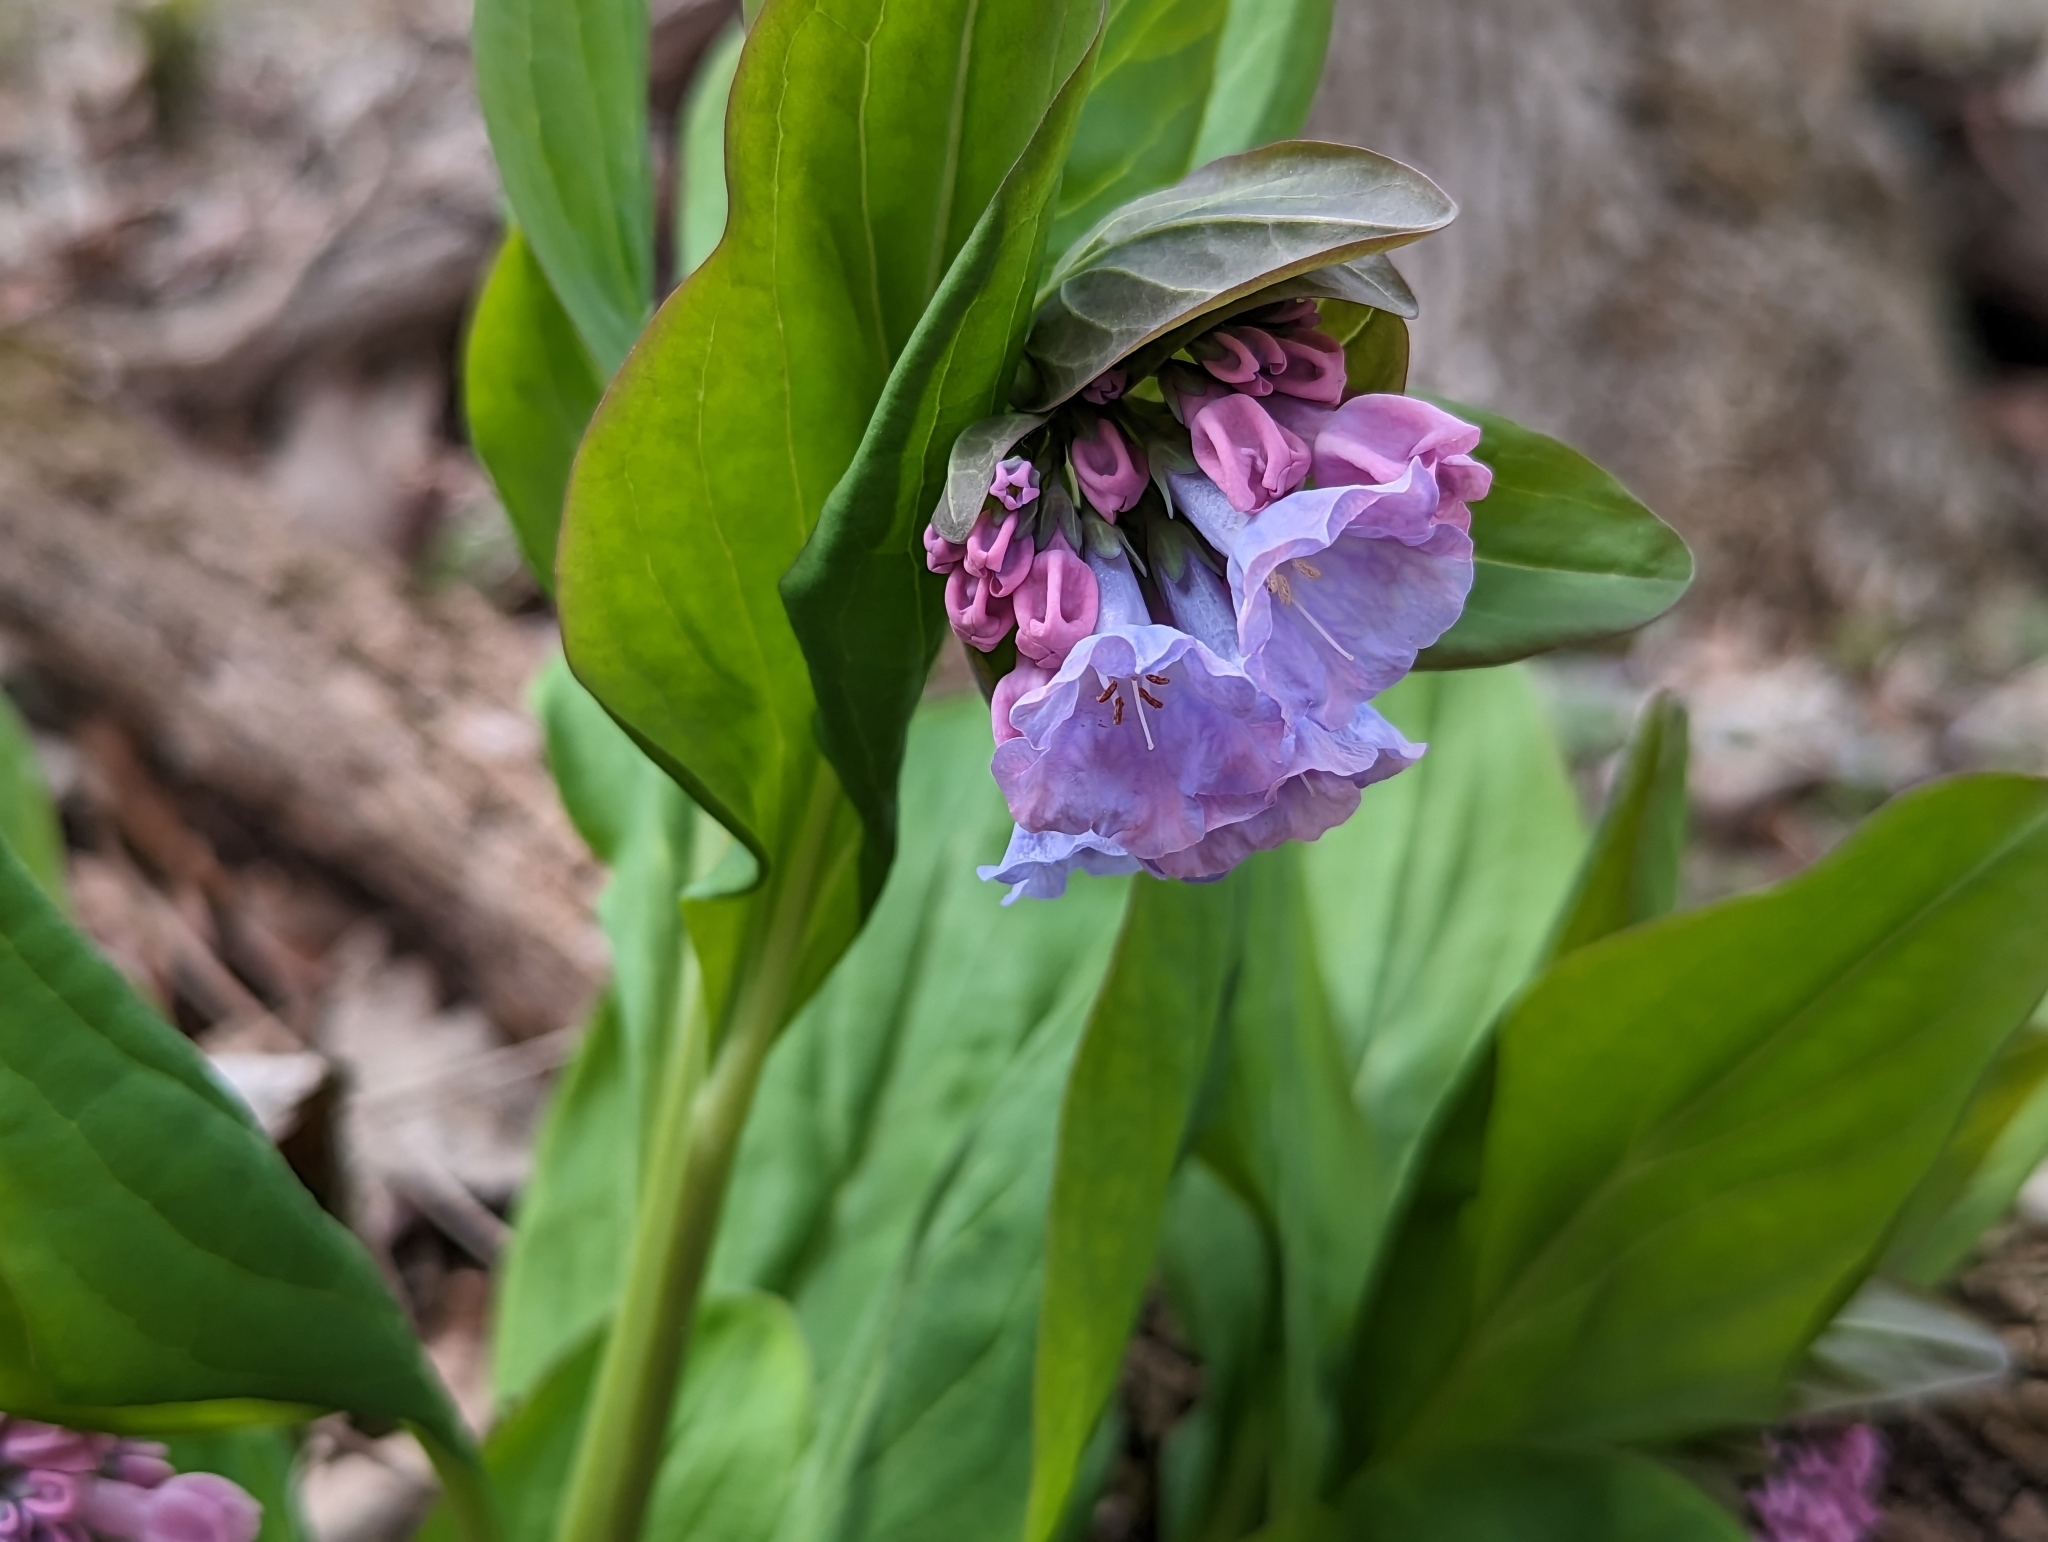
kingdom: Plantae
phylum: Tracheophyta
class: Magnoliopsida
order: Boraginales
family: Boraginaceae
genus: Mertensia
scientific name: Mertensia virginica
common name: Virginia bluebells
